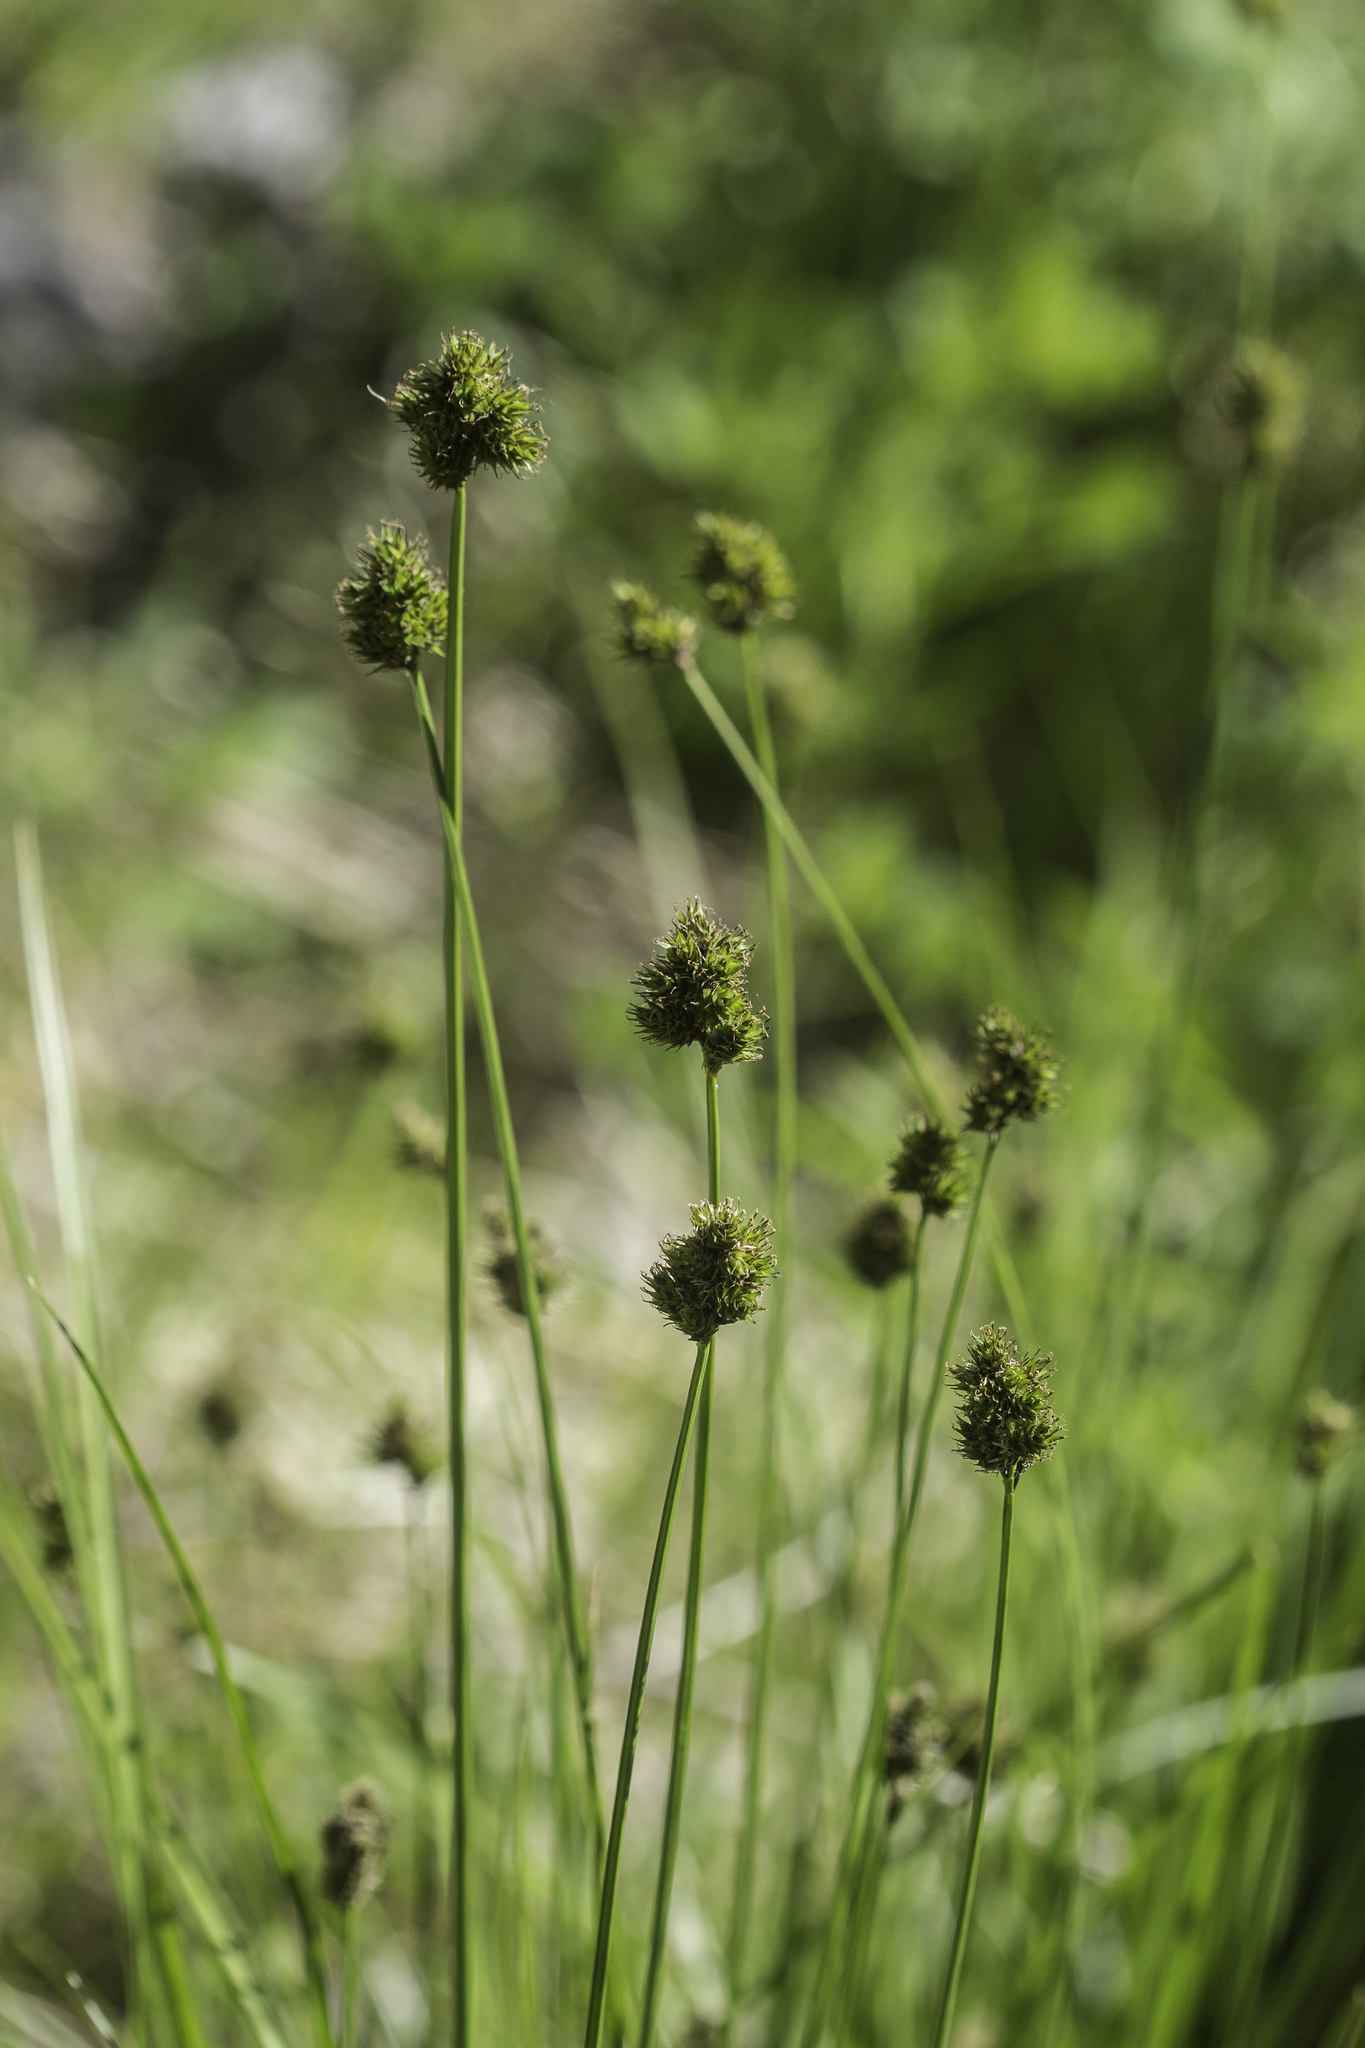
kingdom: Plantae
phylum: Tracheophyta
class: Liliopsida
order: Poales
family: Cyperaceae
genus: Carex
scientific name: Carex microptera
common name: Oval-headed sedge
